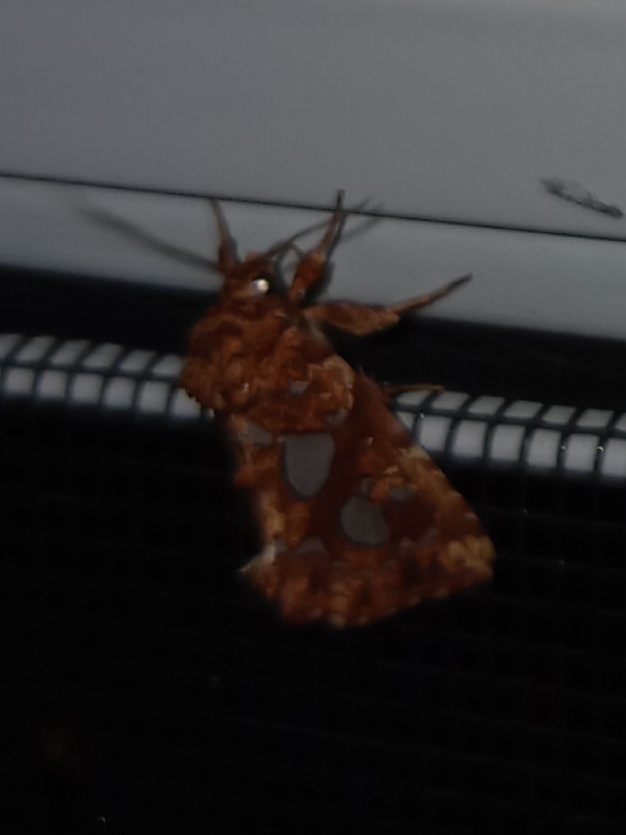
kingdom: Animalia
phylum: Arthropoda
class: Insecta
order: Lepidoptera
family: Noctuidae
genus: Callopistria
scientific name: Callopistria cordata
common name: Silver-spotted fern moth
